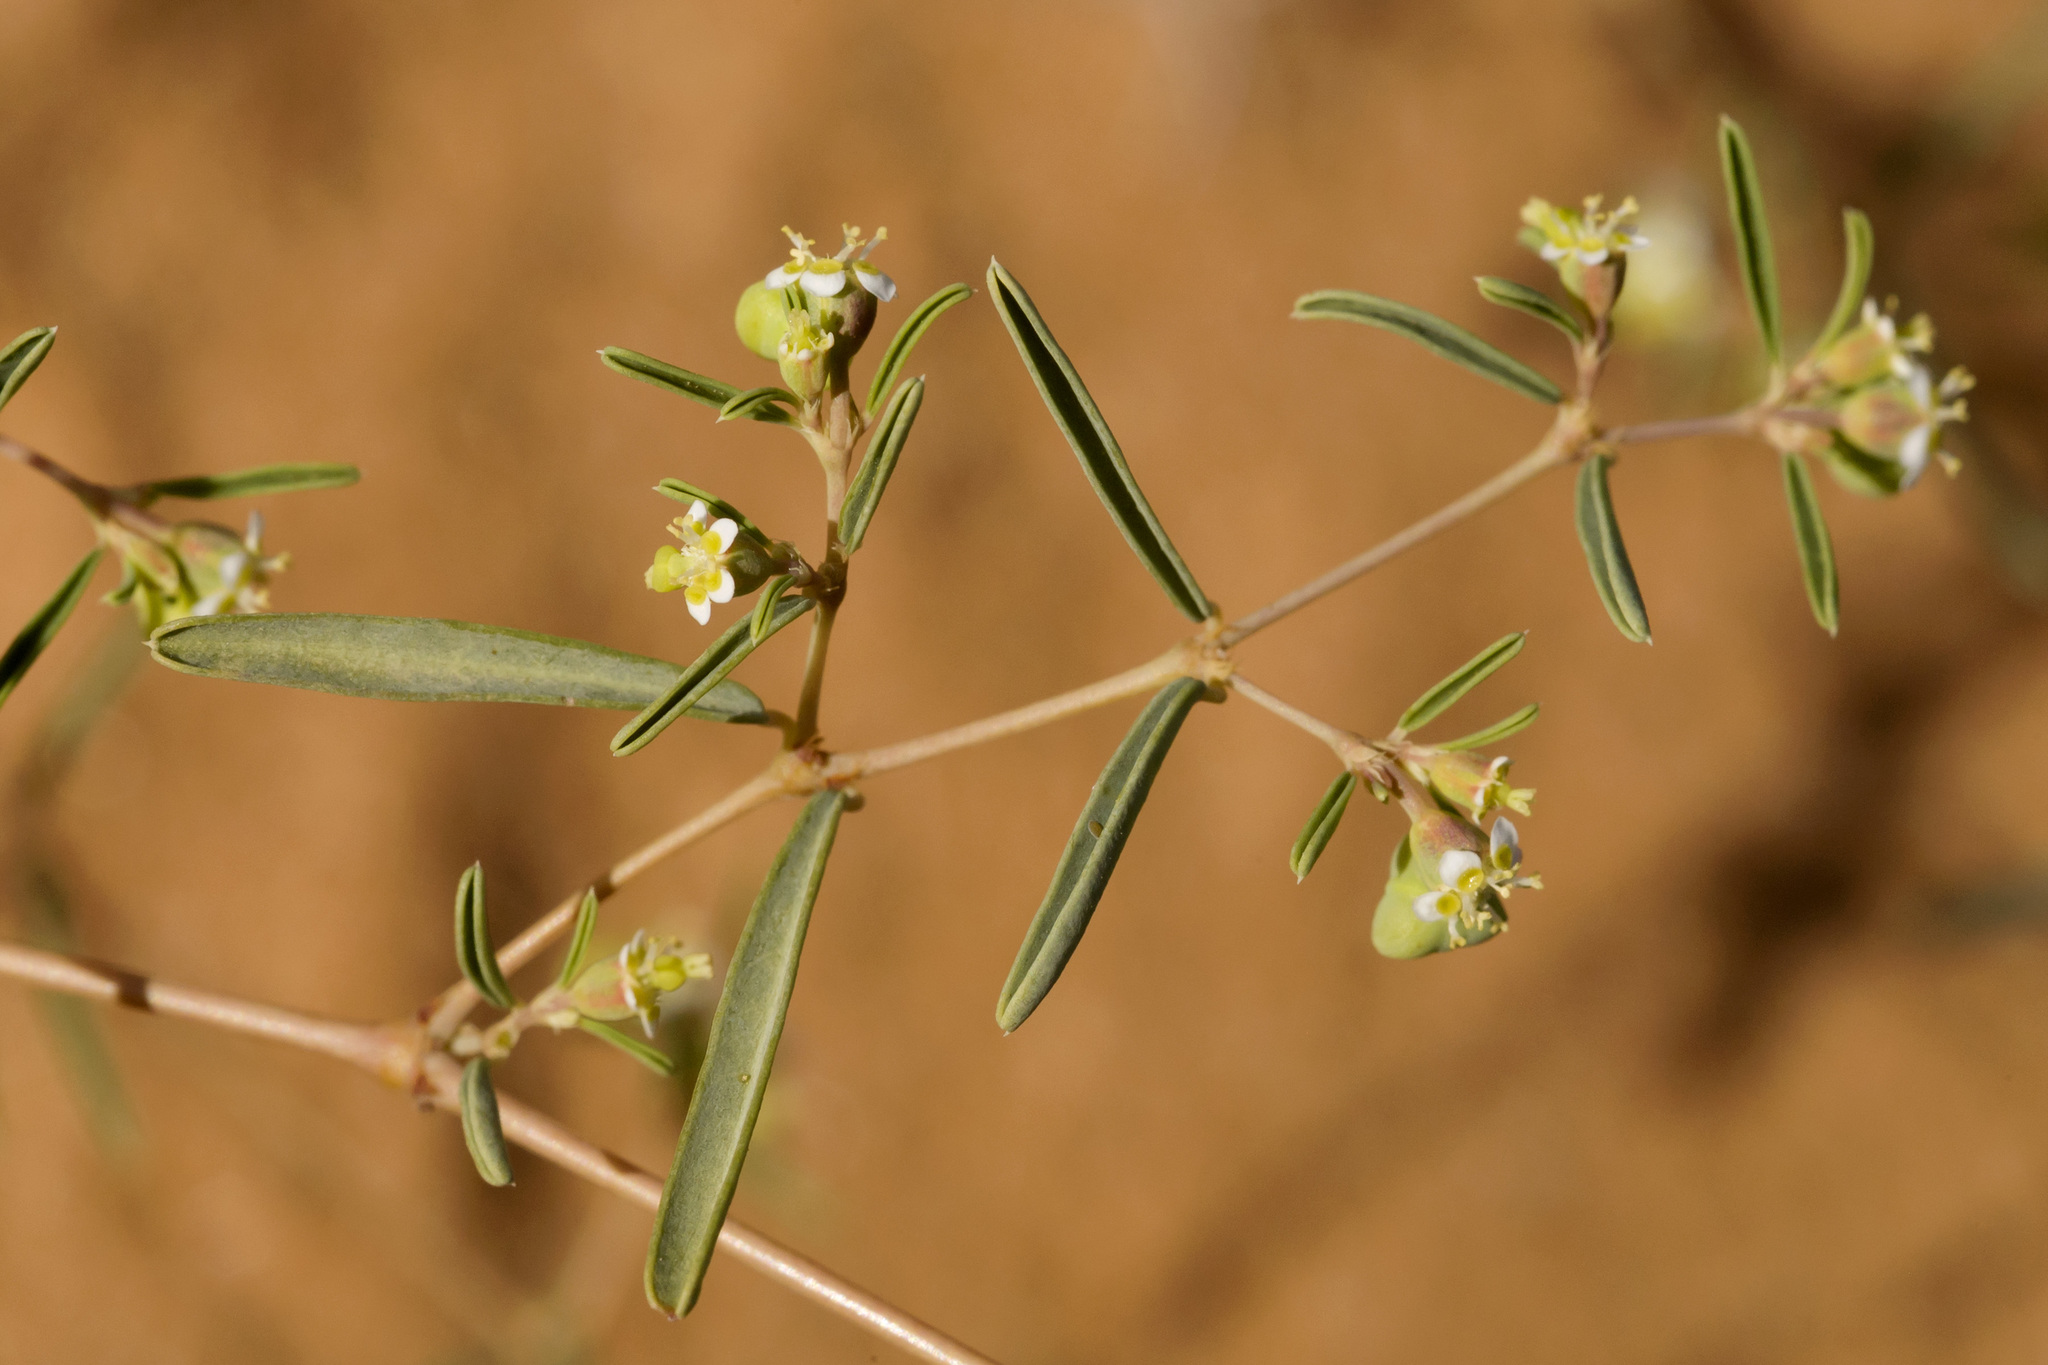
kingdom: Plantae
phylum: Tracheophyta
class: Magnoliopsida
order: Malpighiales
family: Euphorbiaceae
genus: Euphorbia
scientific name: Euphorbia missurica
